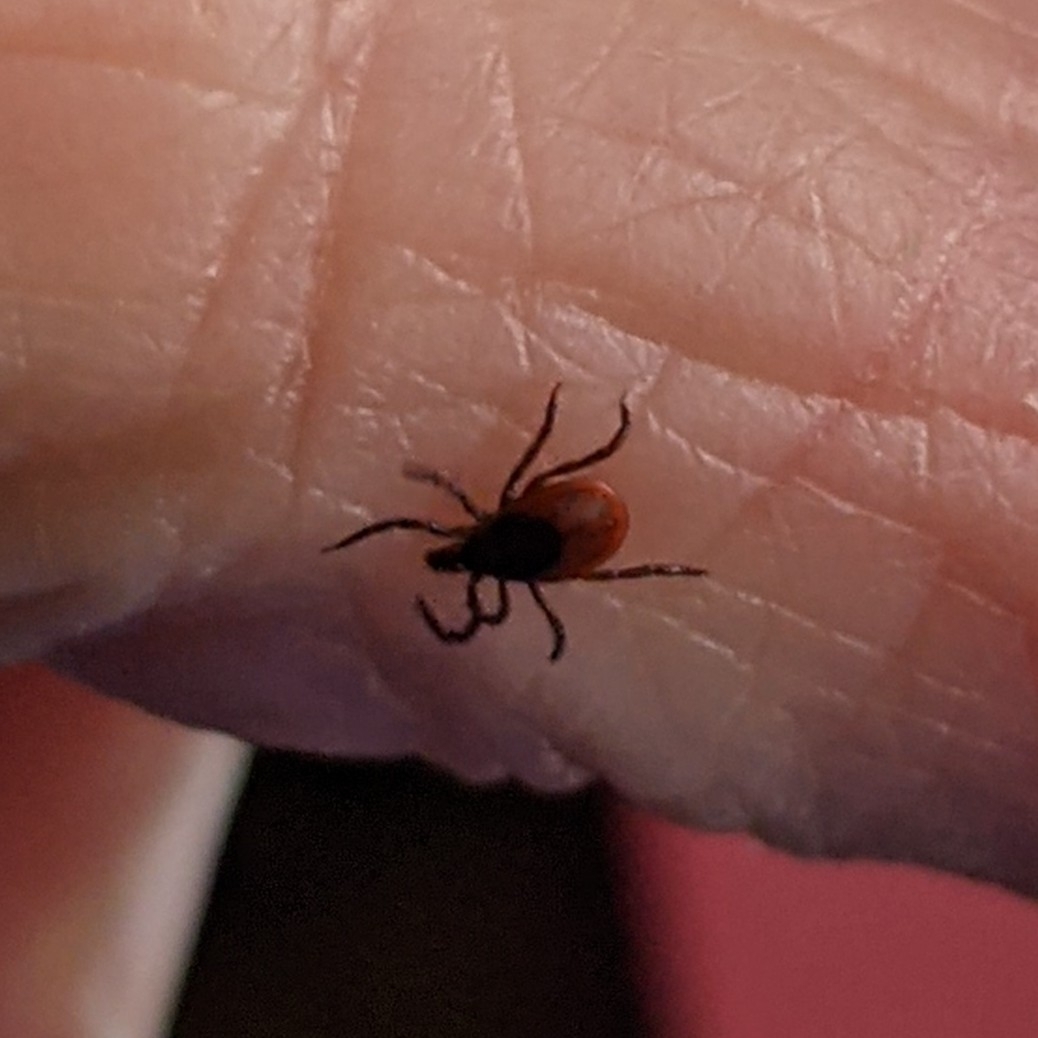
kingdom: Animalia
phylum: Arthropoda
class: Arachnida
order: Ixodida
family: Ixodidae
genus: Ixodes
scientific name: Ixodes scapularis
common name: Black legged tick
